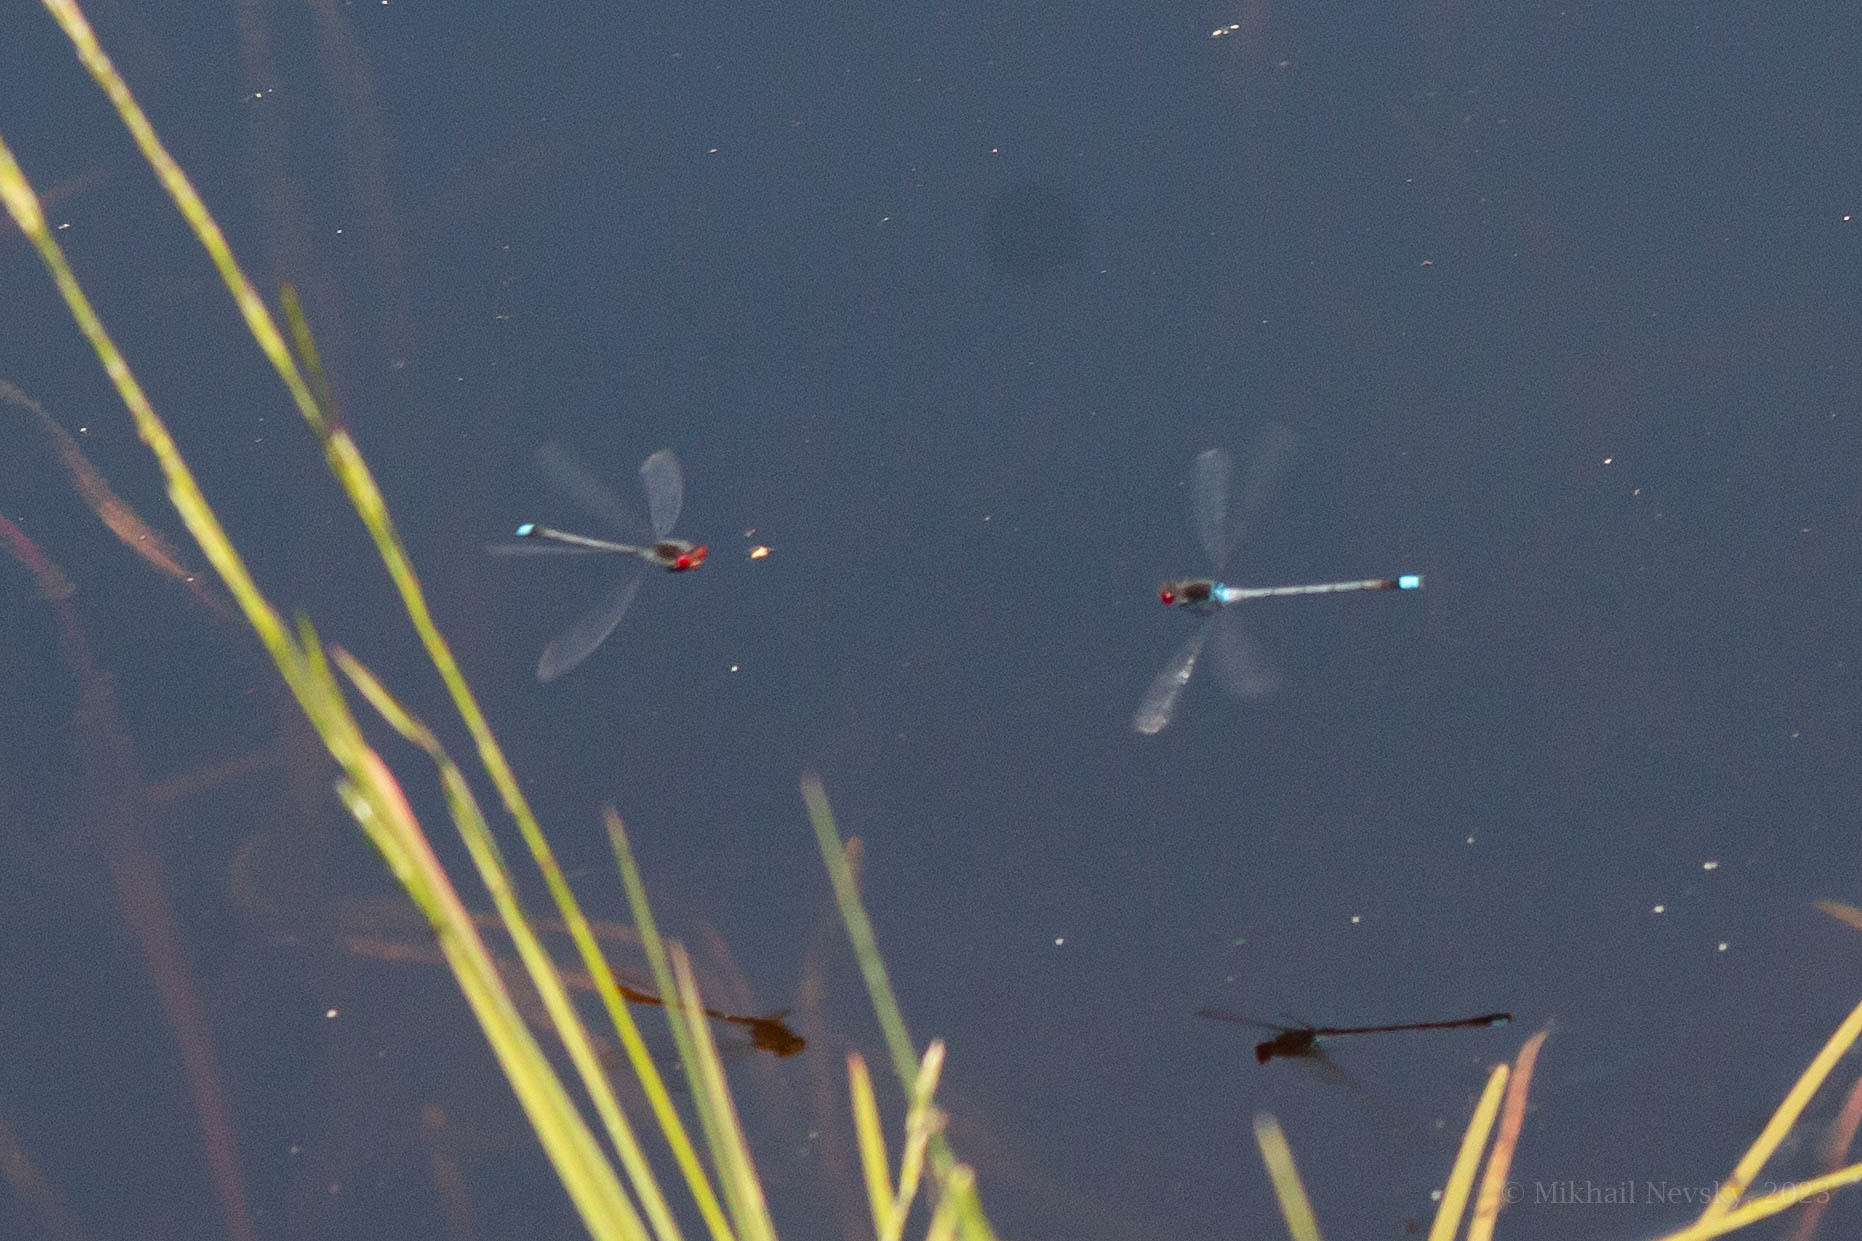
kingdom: Animalia
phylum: Arthropoda
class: Insecta
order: Odonata
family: Coenagrionidae
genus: Erythromma
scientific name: Erythromma najas
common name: Red-eyed damselfly
